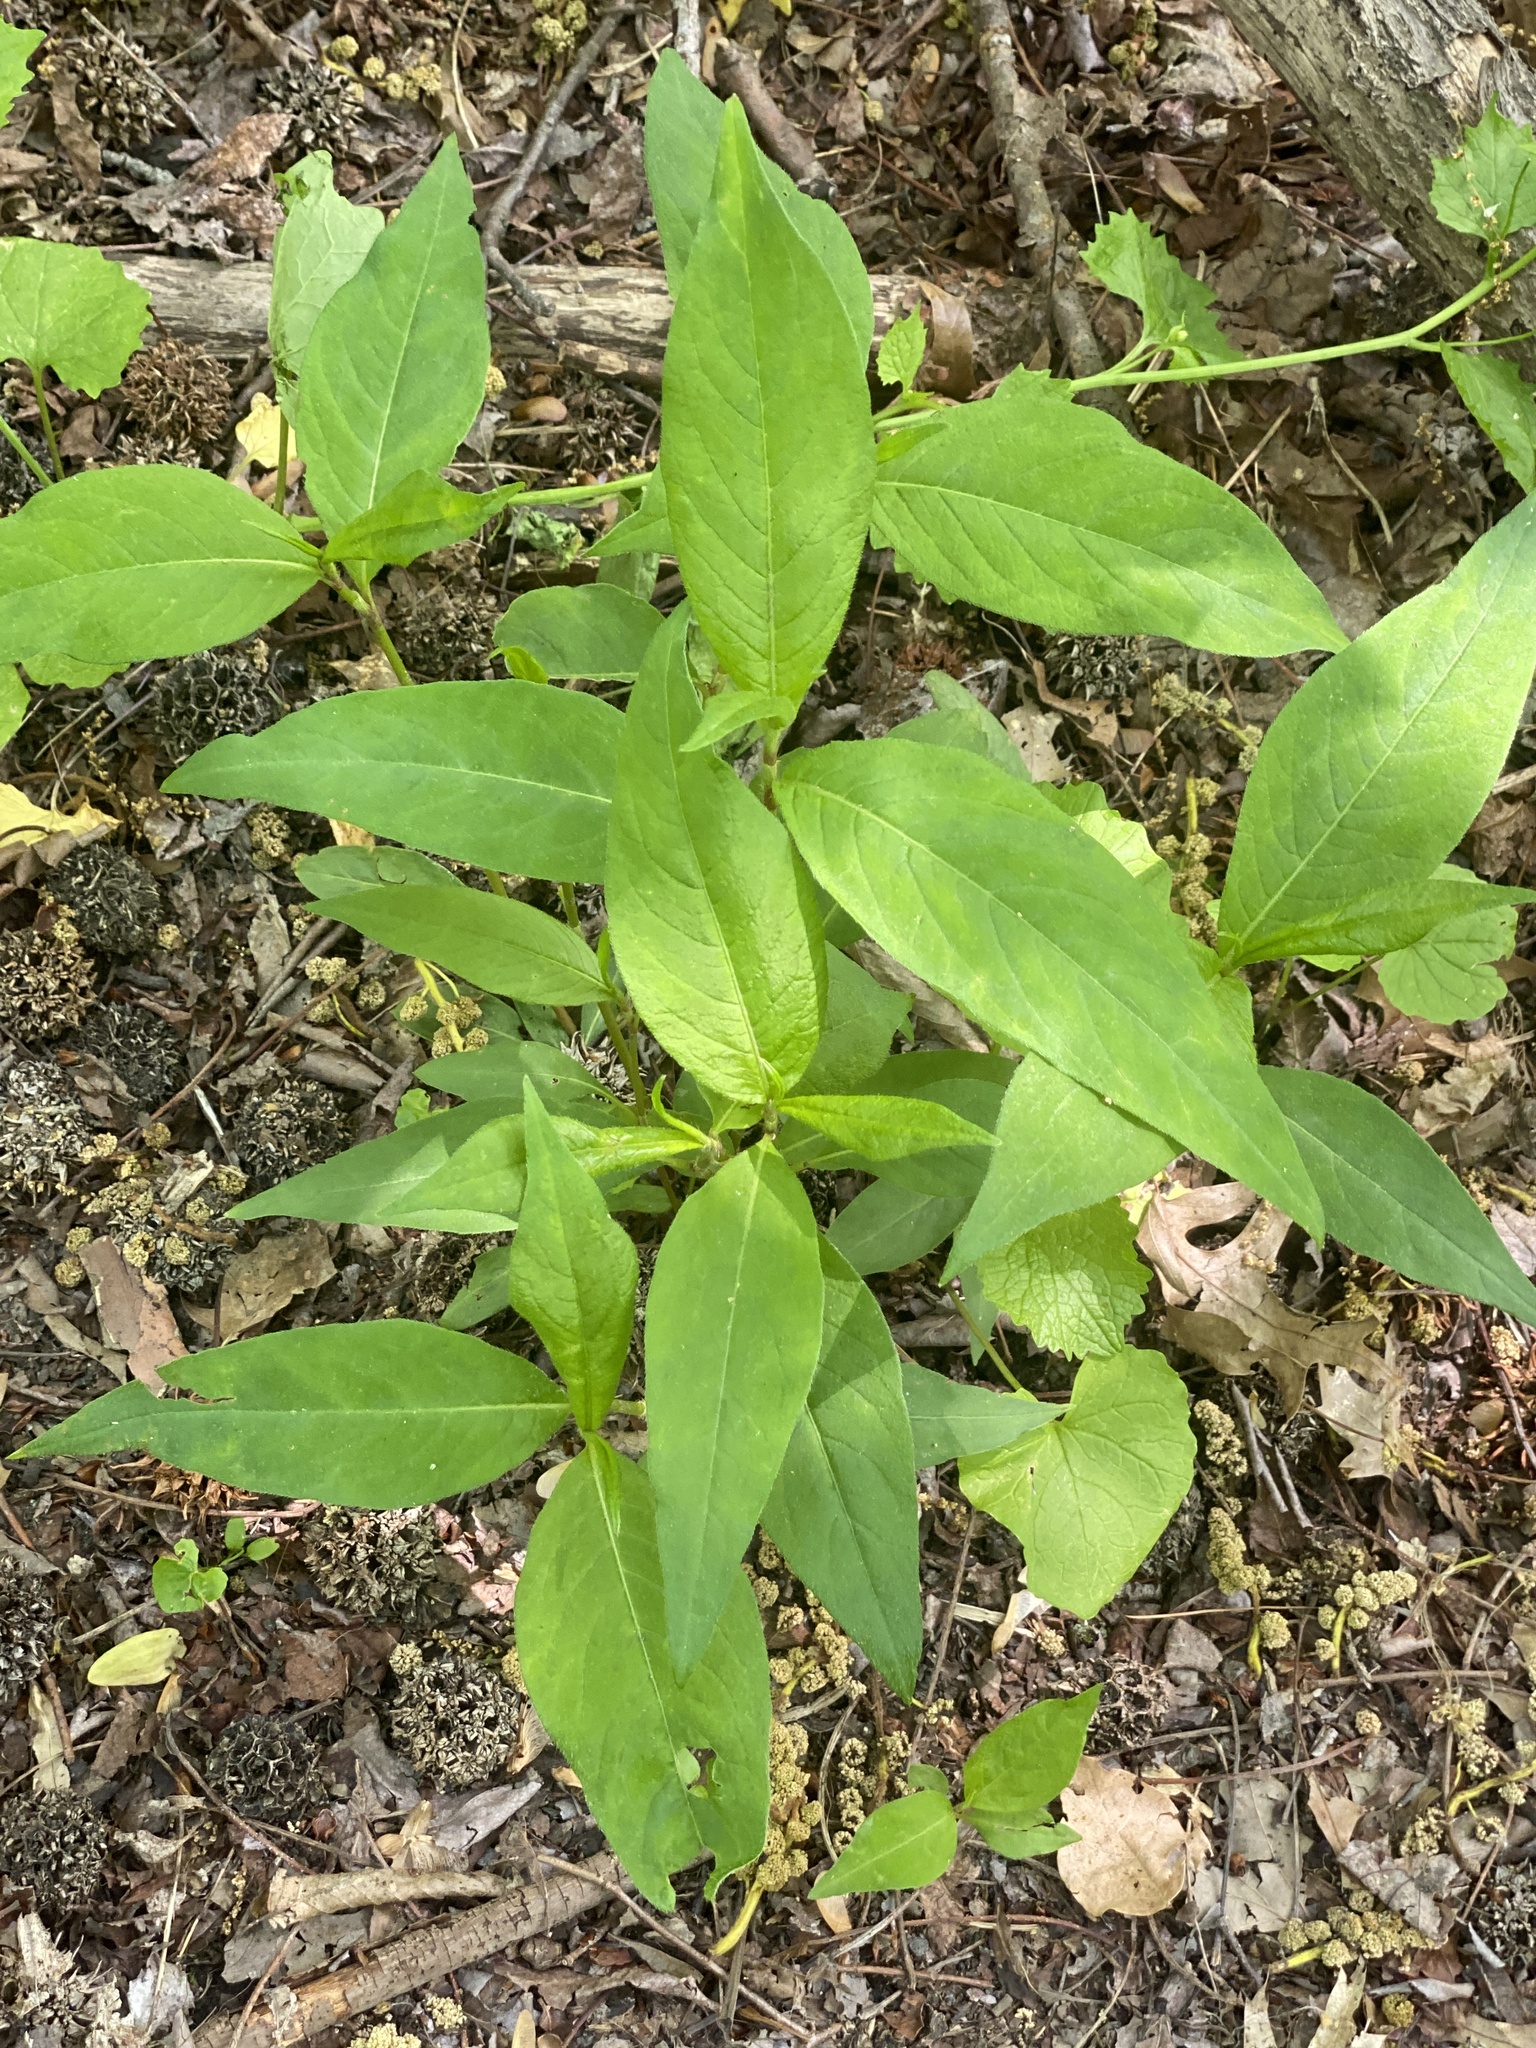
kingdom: Plantae
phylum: Tracheophyta
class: Magnoliopsida
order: Caryophyllales
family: Polygonaceae
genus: Persicaria
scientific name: Persicaria virginiana
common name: Jumpseed
